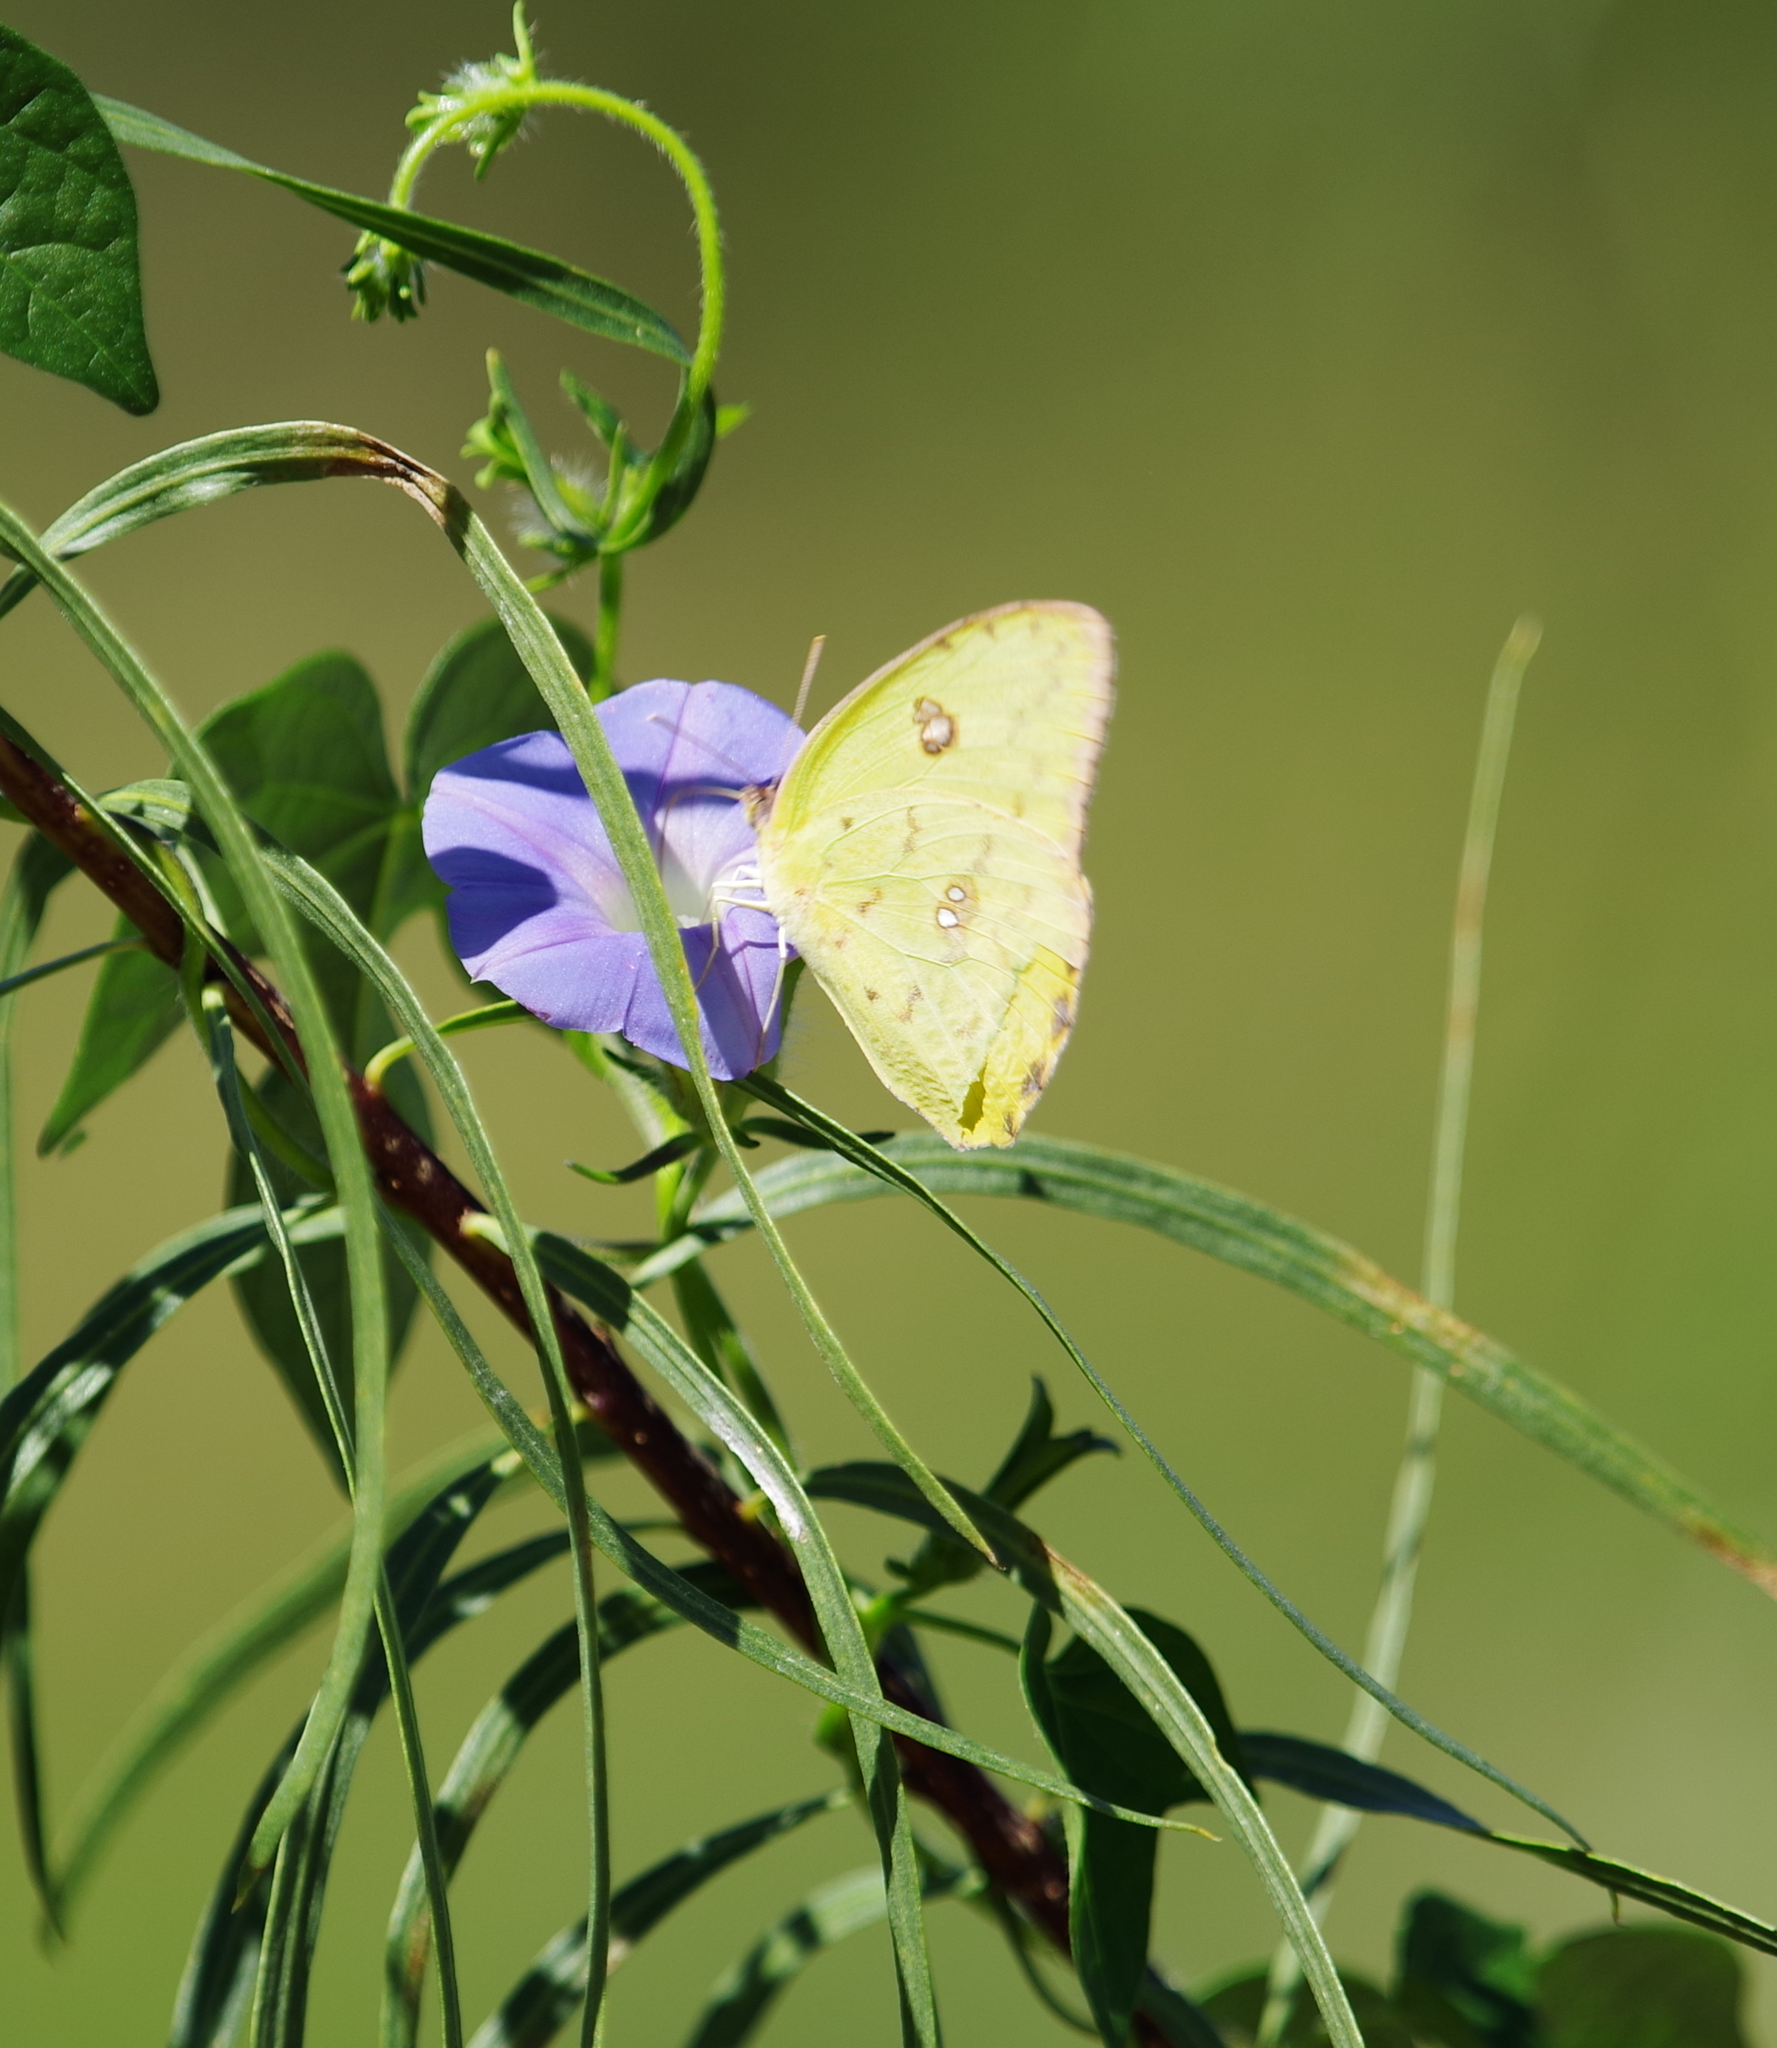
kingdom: Animalia
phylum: Arthropoda
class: Insecta
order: Lepidoptera
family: Pieridae
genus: Phoebis
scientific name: Phoebis sennae
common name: Cloudless sulphur
